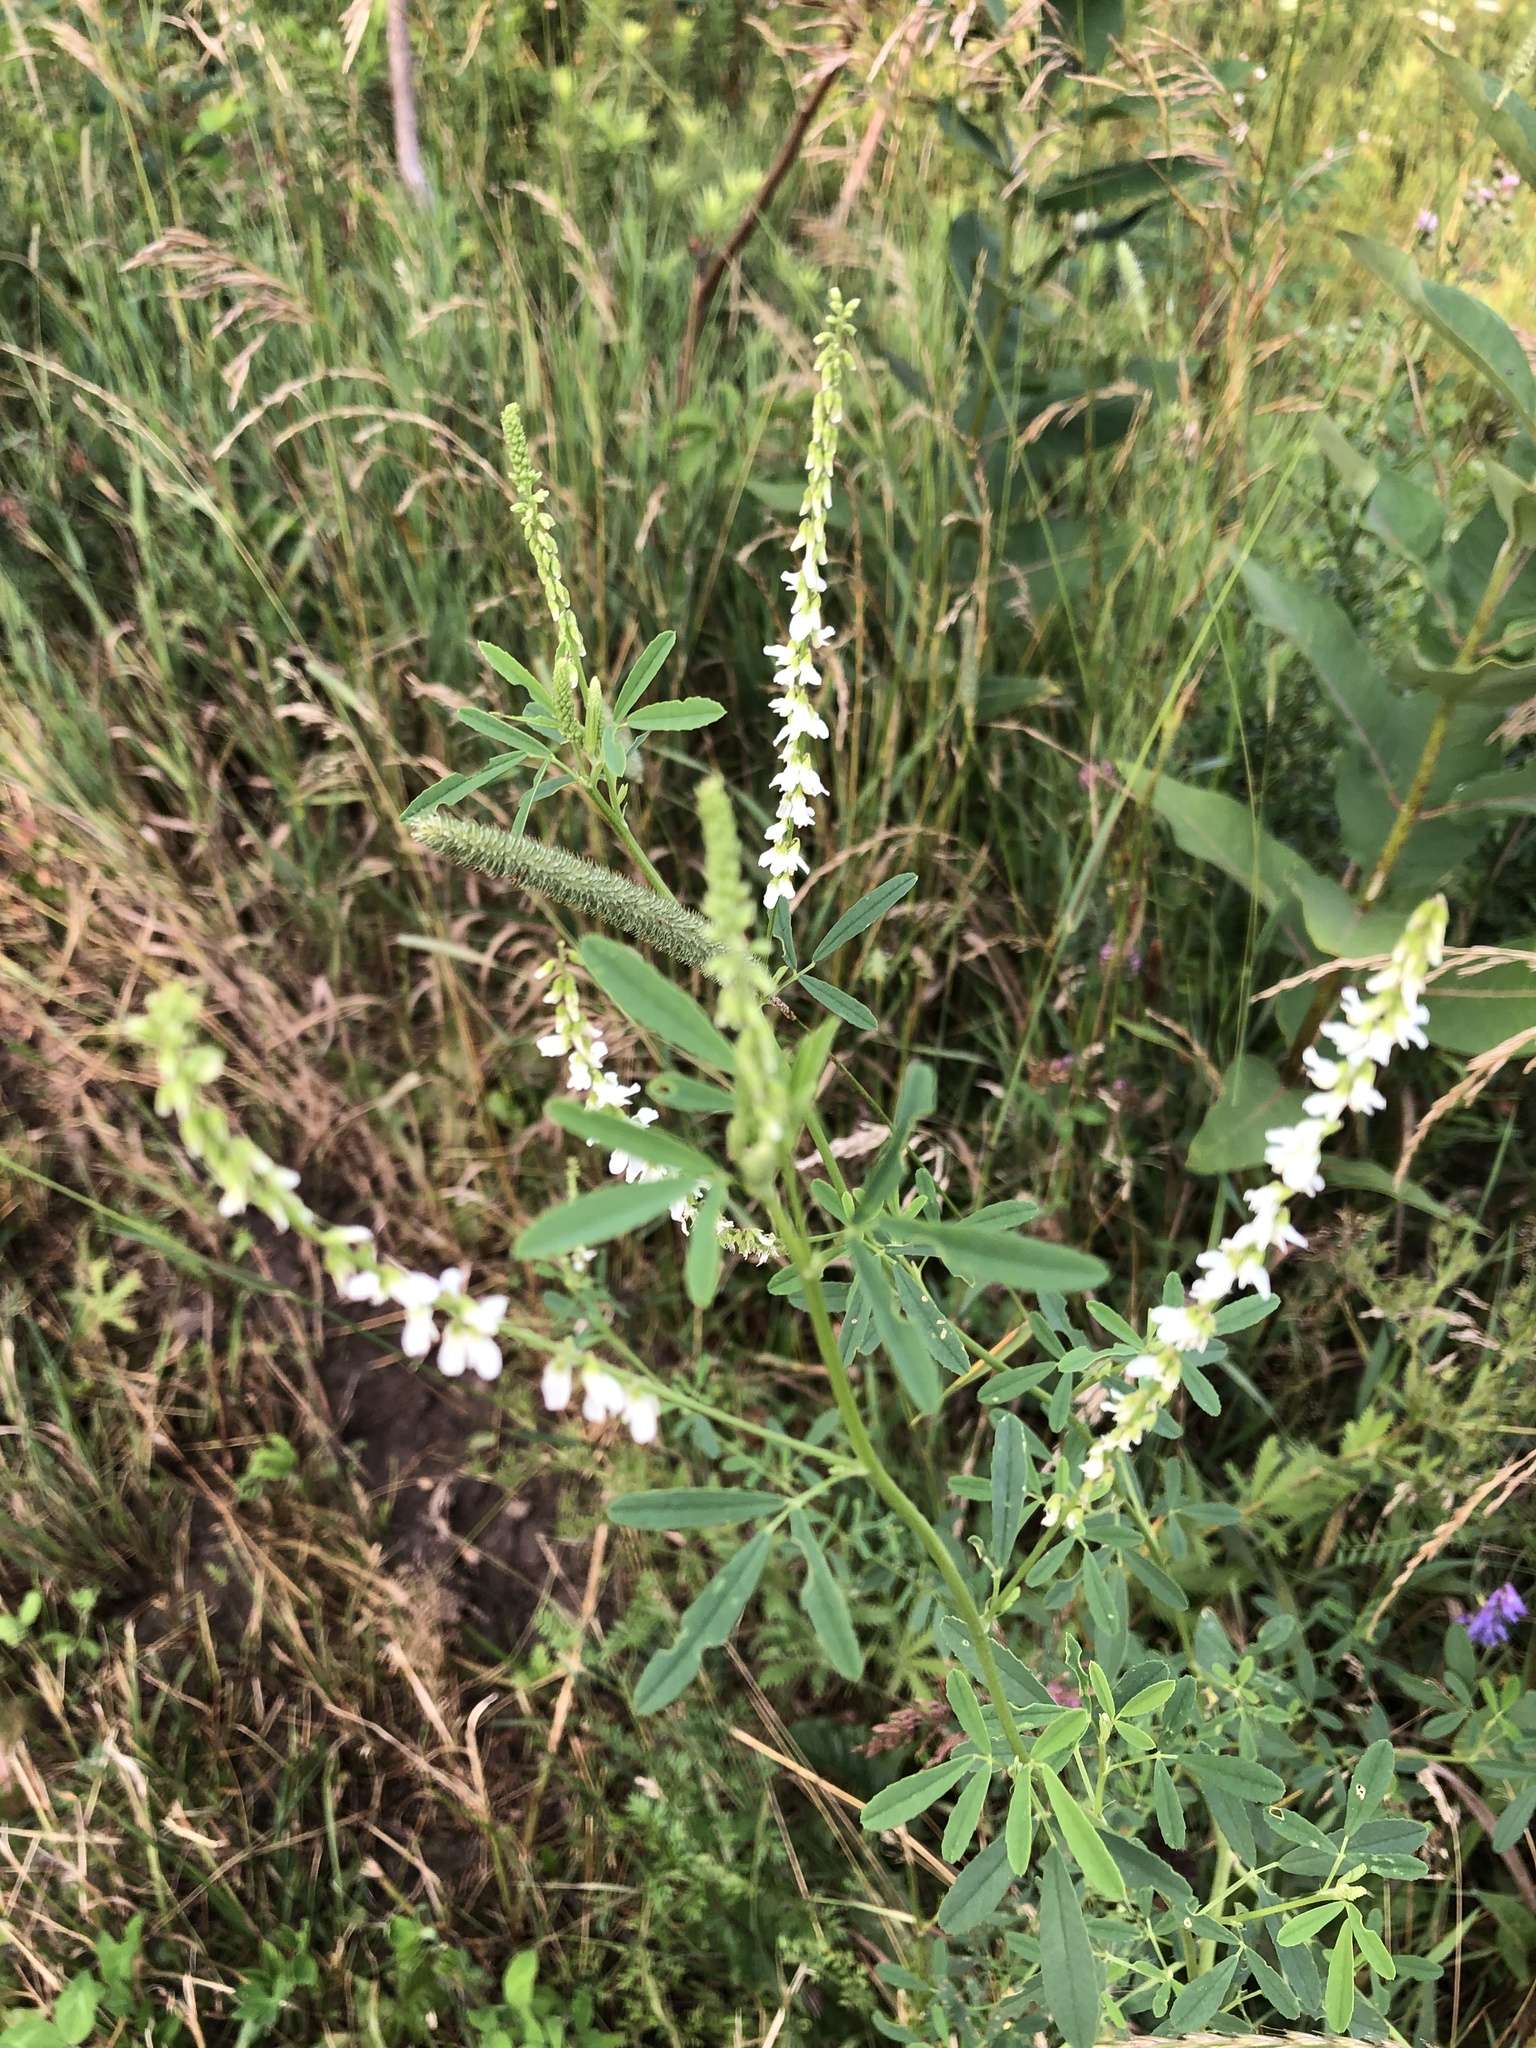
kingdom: Plantae
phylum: Tracheophyta
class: Magnoliopsida
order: Fabales
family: Fabaceae
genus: Melilotus
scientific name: Melilotus albus
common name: White melilot
